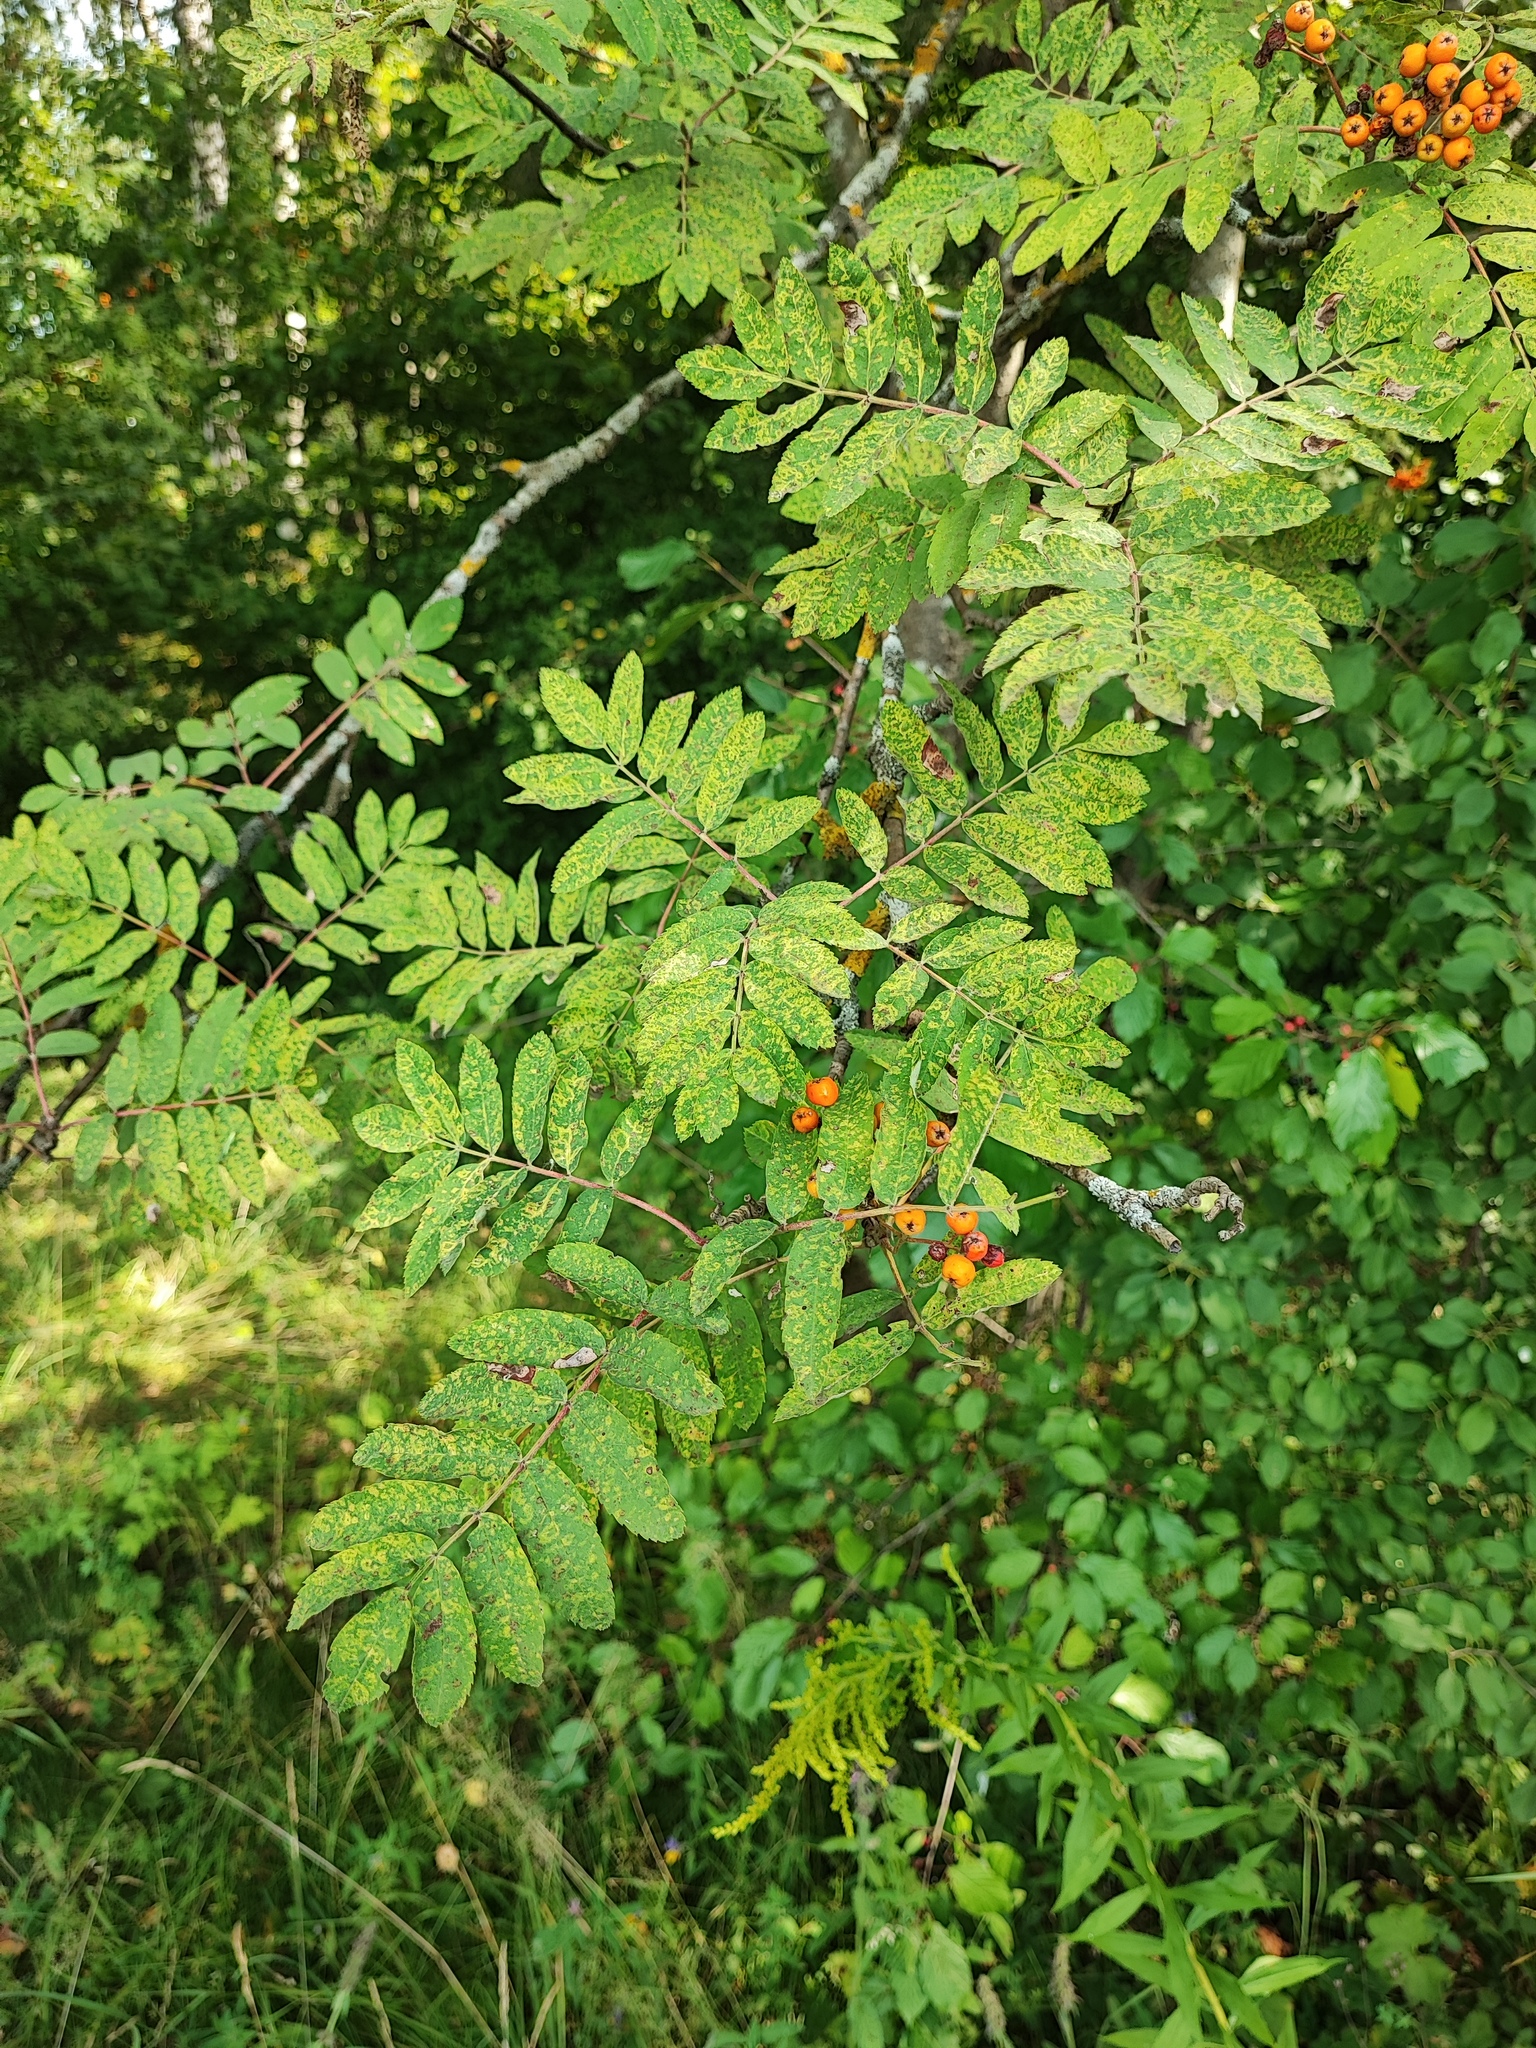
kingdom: Plantae
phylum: Tracheophyta
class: Magnoliopsida
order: Rosales
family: Rosaceae
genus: Sorbus
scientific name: Sorbus aucuparia
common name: Rowan
